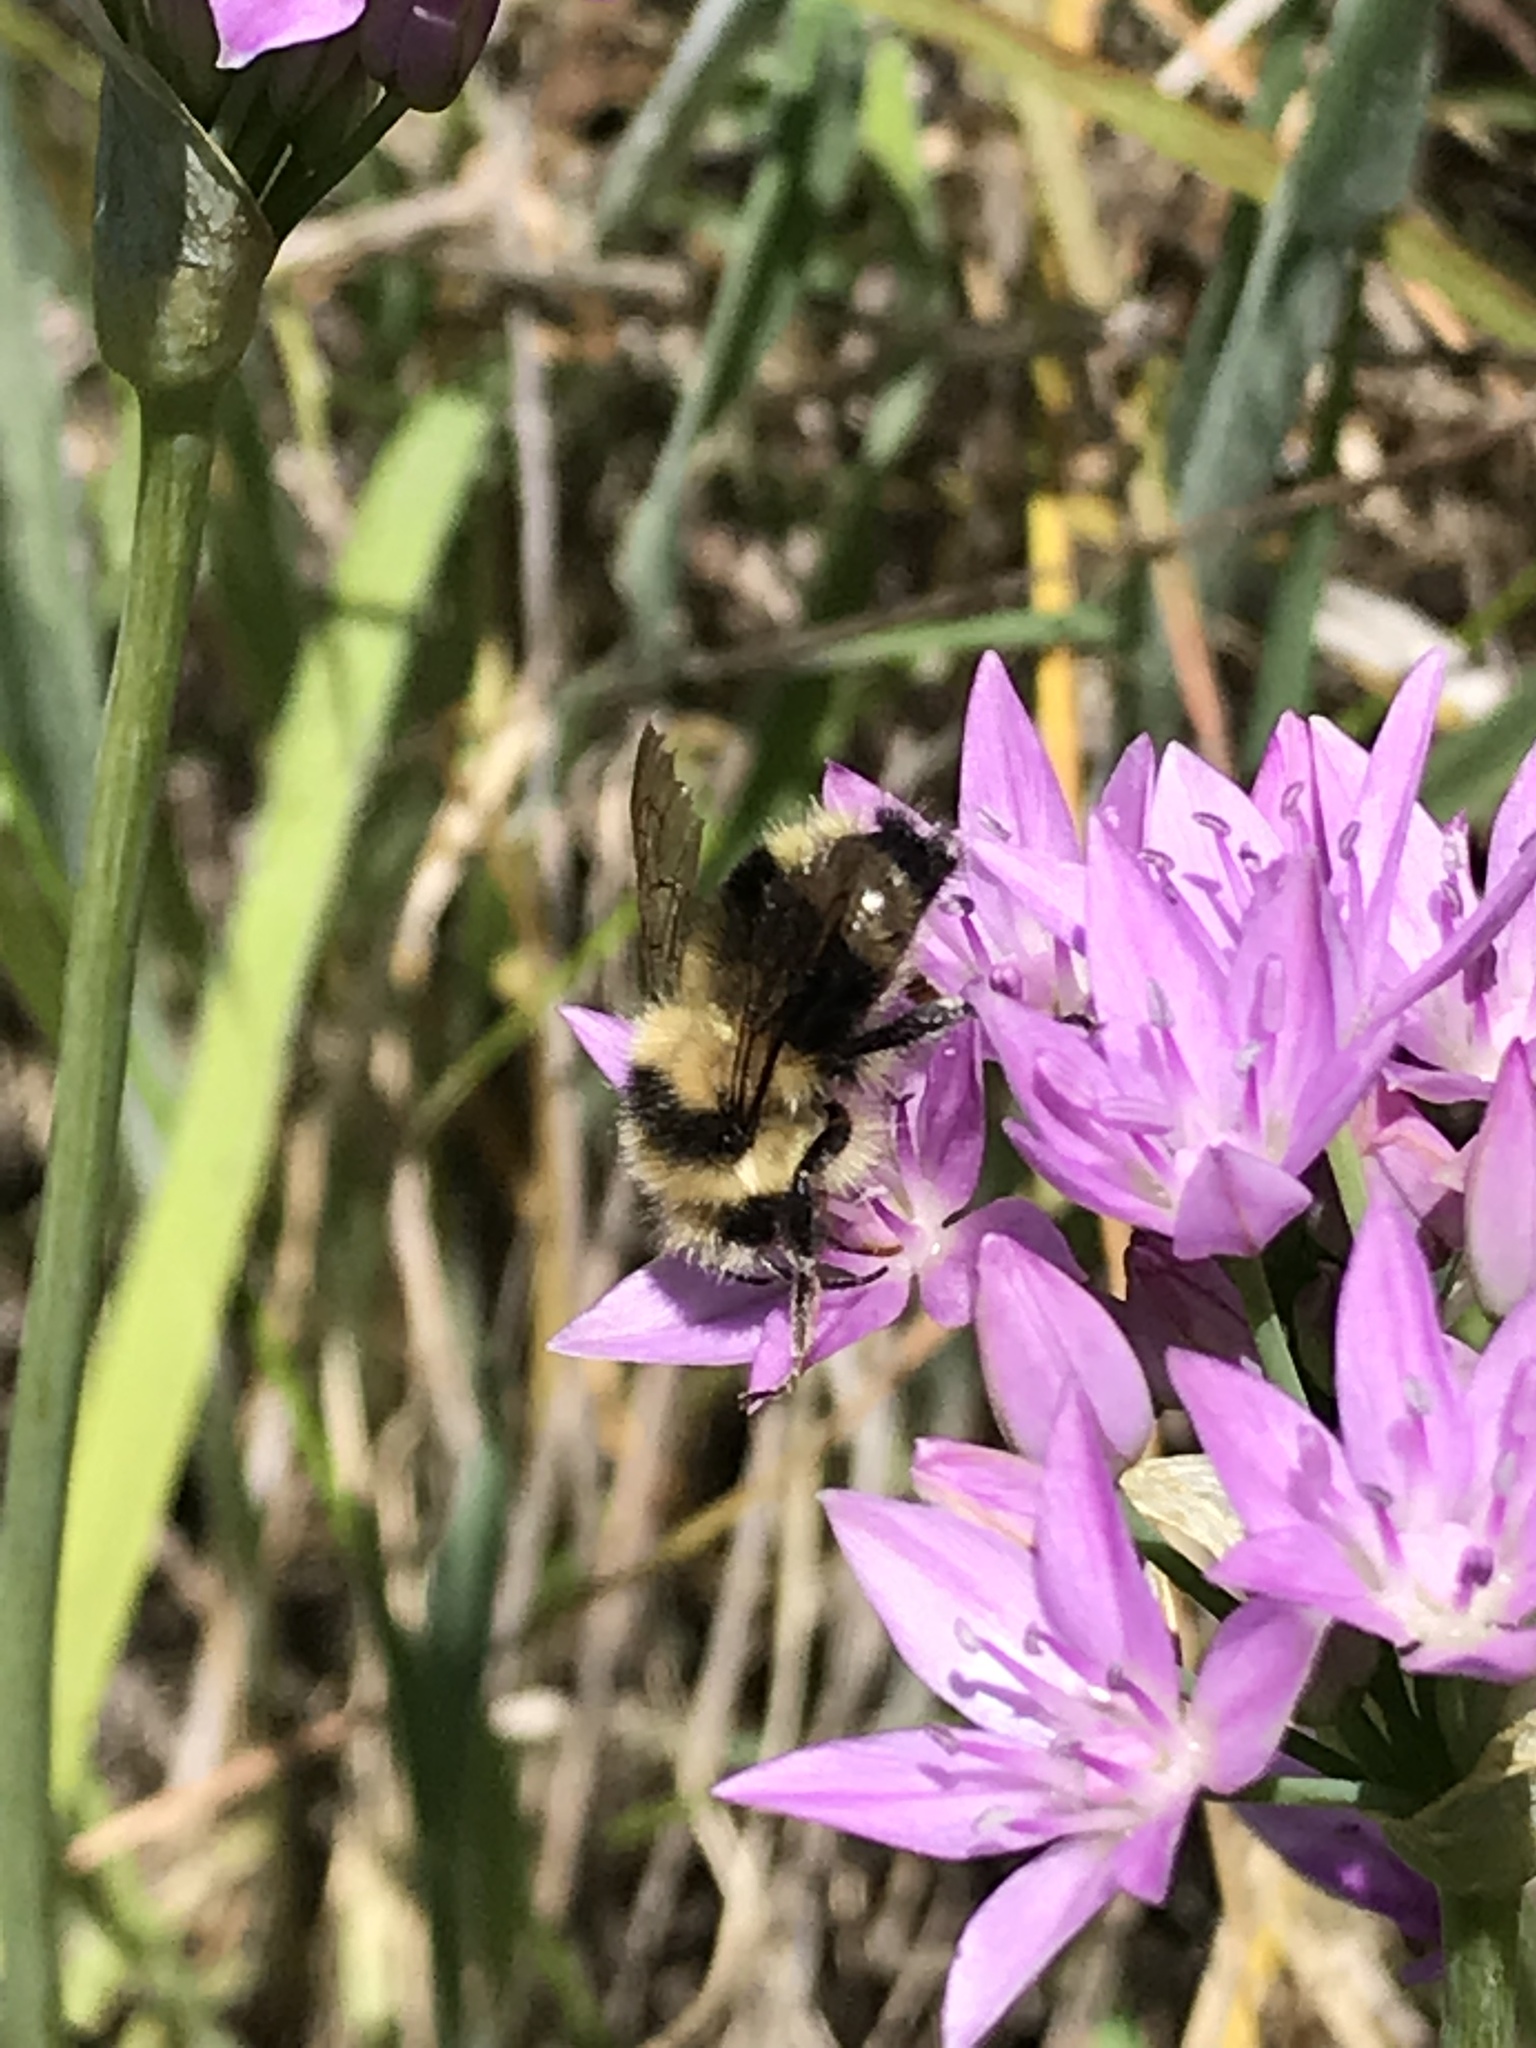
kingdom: Animalia
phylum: Arthropoda
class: Insecta
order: Hymenoptera
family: Apidae
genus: Bombus
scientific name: Bombus melanopygus
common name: Black tail bumble bee
